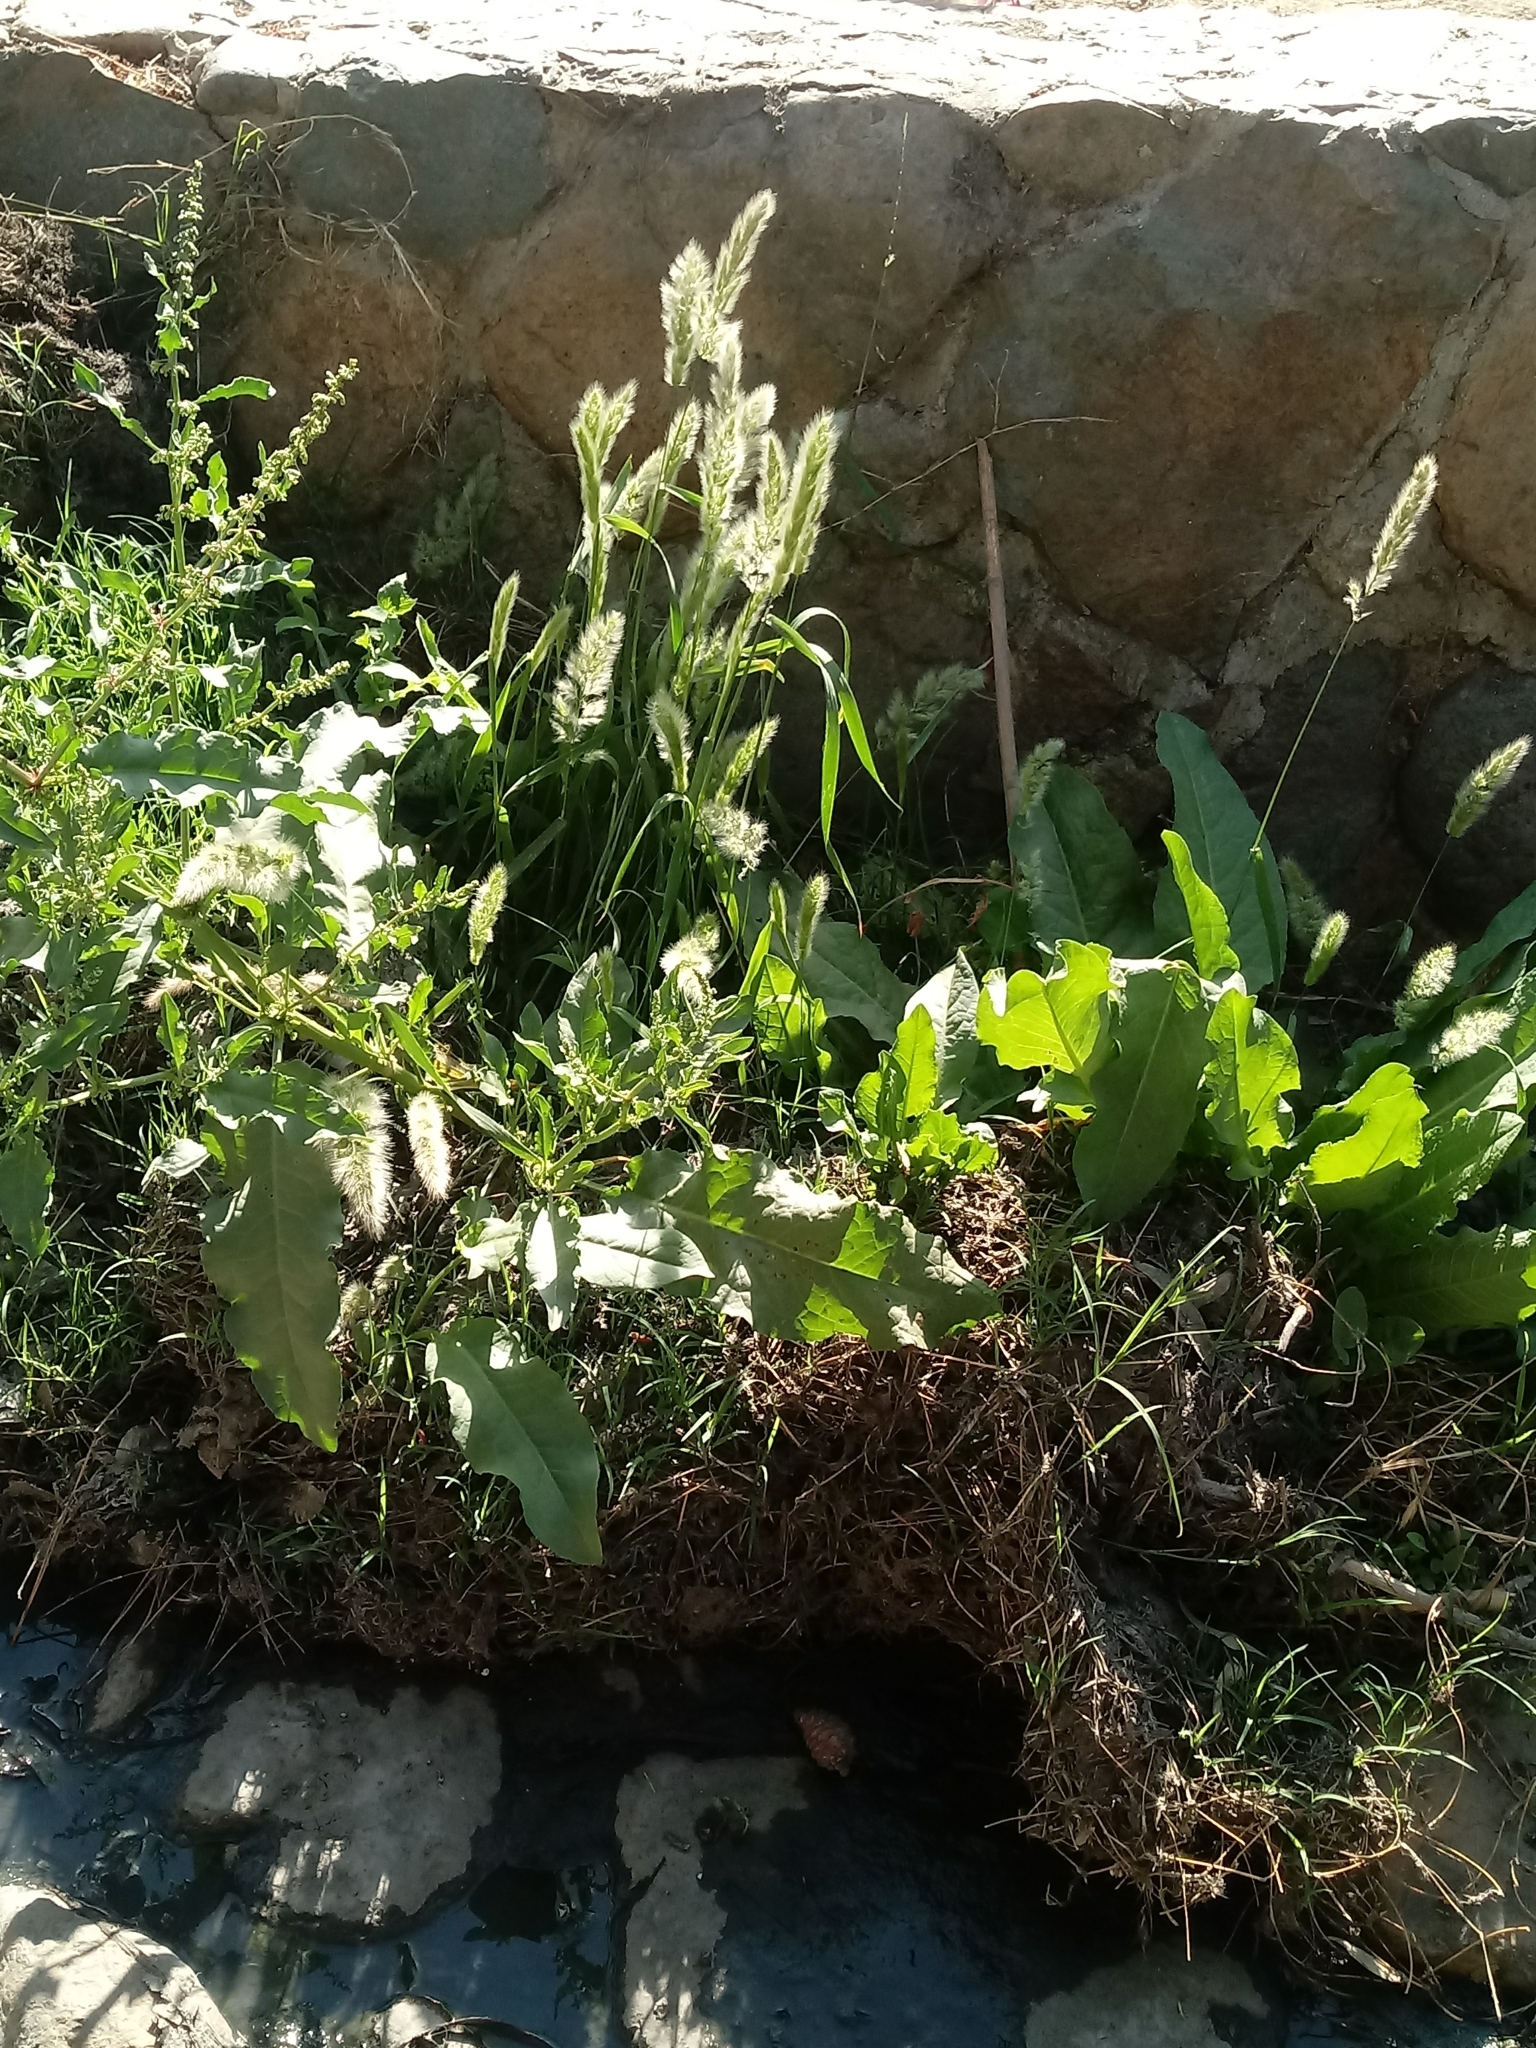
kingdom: Plantae
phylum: Tracheophyta
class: Liliopsida
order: Poales
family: Poaceae
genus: Polypogon
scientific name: Polypogon monspeliensis
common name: Annual rabbitsfoot grass
